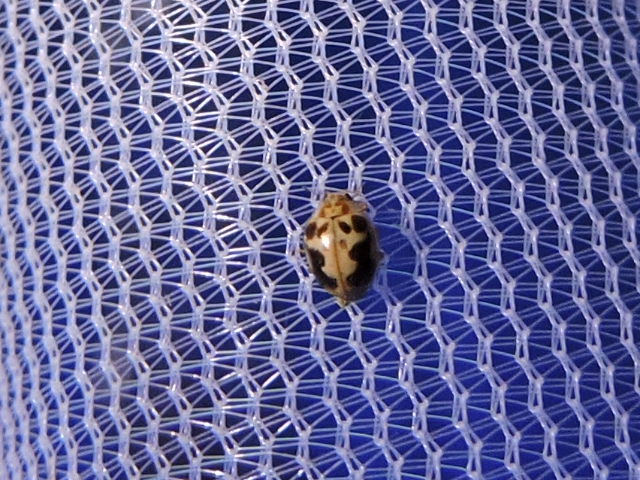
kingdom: Animalia
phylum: Arthropoda
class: Insecta
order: Coleoptera
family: Coccinellidae
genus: Psyllobora
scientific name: Psyllobora renifer
